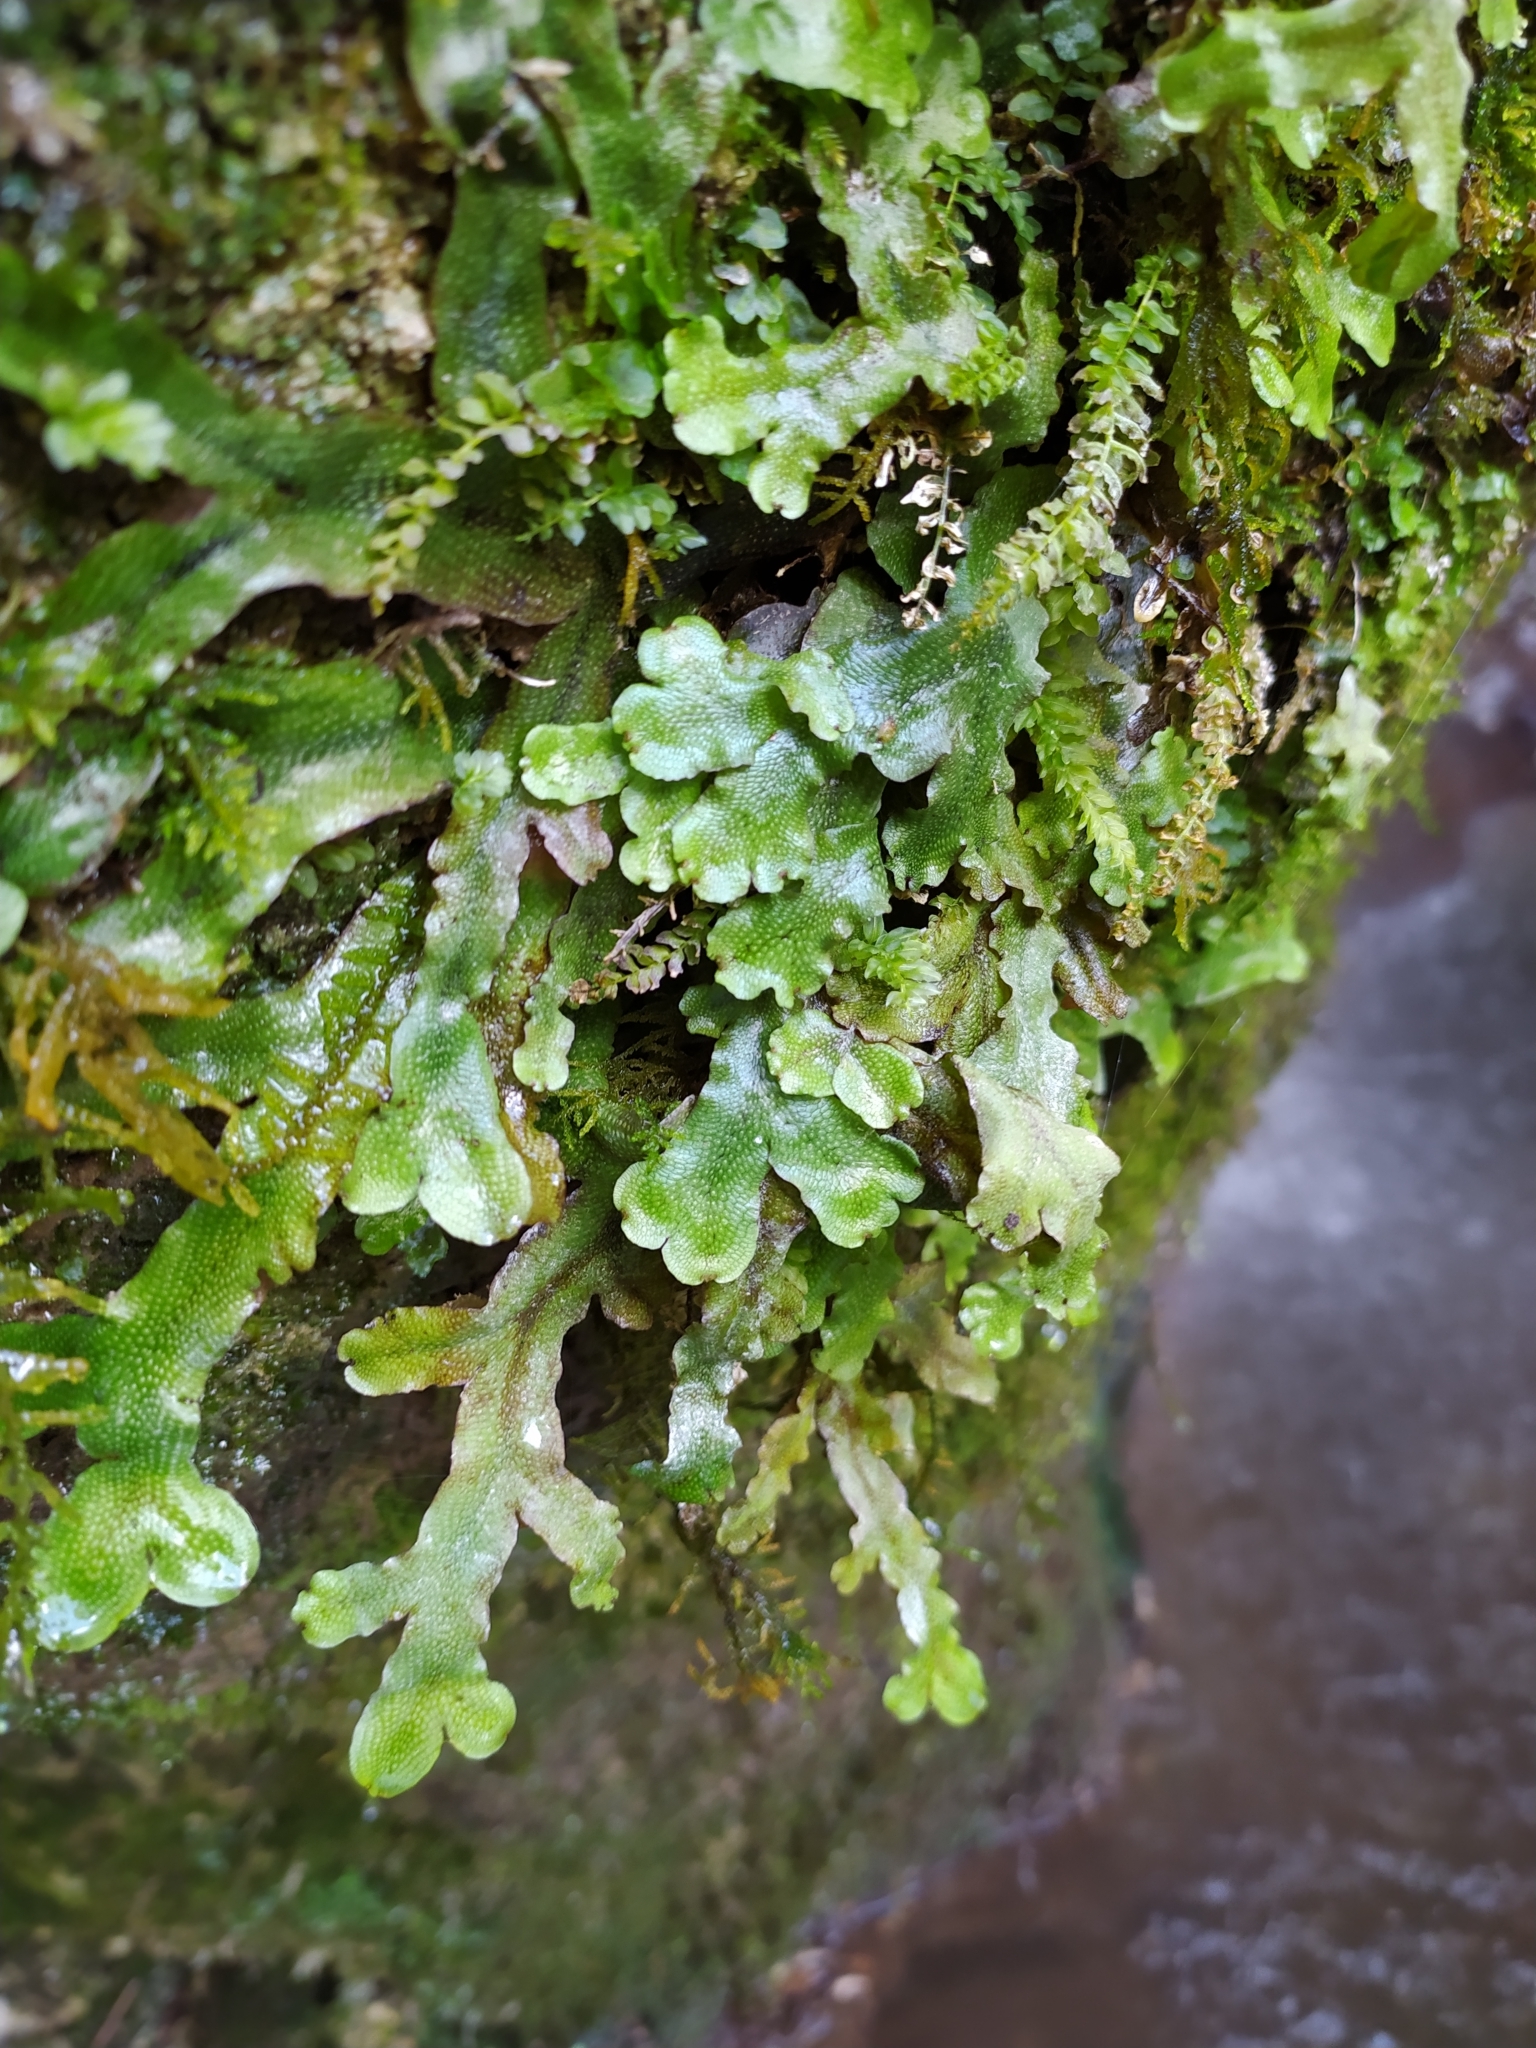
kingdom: Plantae
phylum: Marchantiophyta
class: Marchantiopsida
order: Marchantiales
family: Conocephalaceae
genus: Conocephalum
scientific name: Conocephalum conicum
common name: Great scented liverwort
